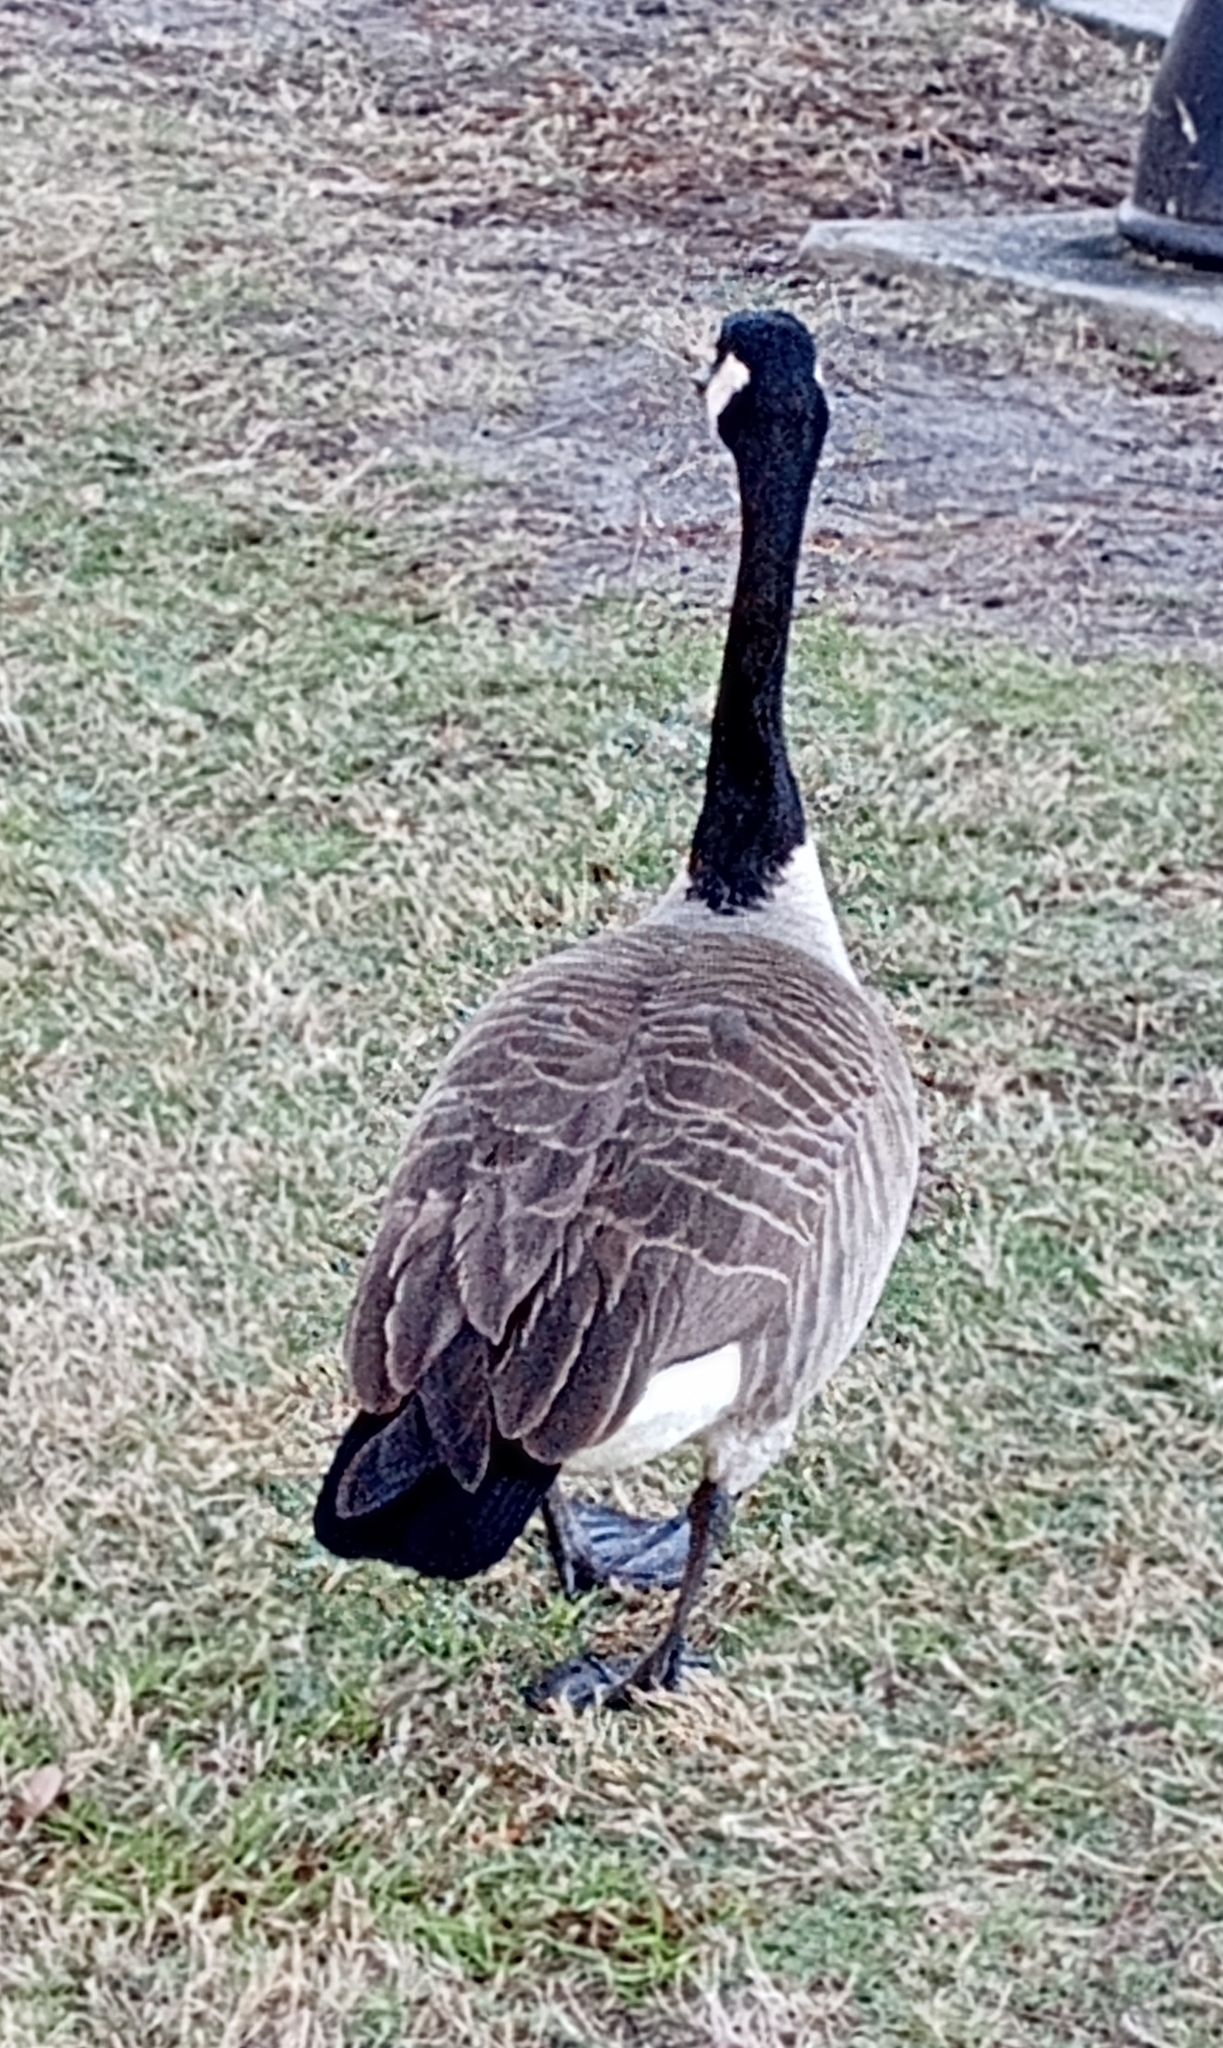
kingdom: Animalia
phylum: Chordata
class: Aves
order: Anseriformes
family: Anatidae
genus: Branta
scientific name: Branta canadensis
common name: Canada goose
